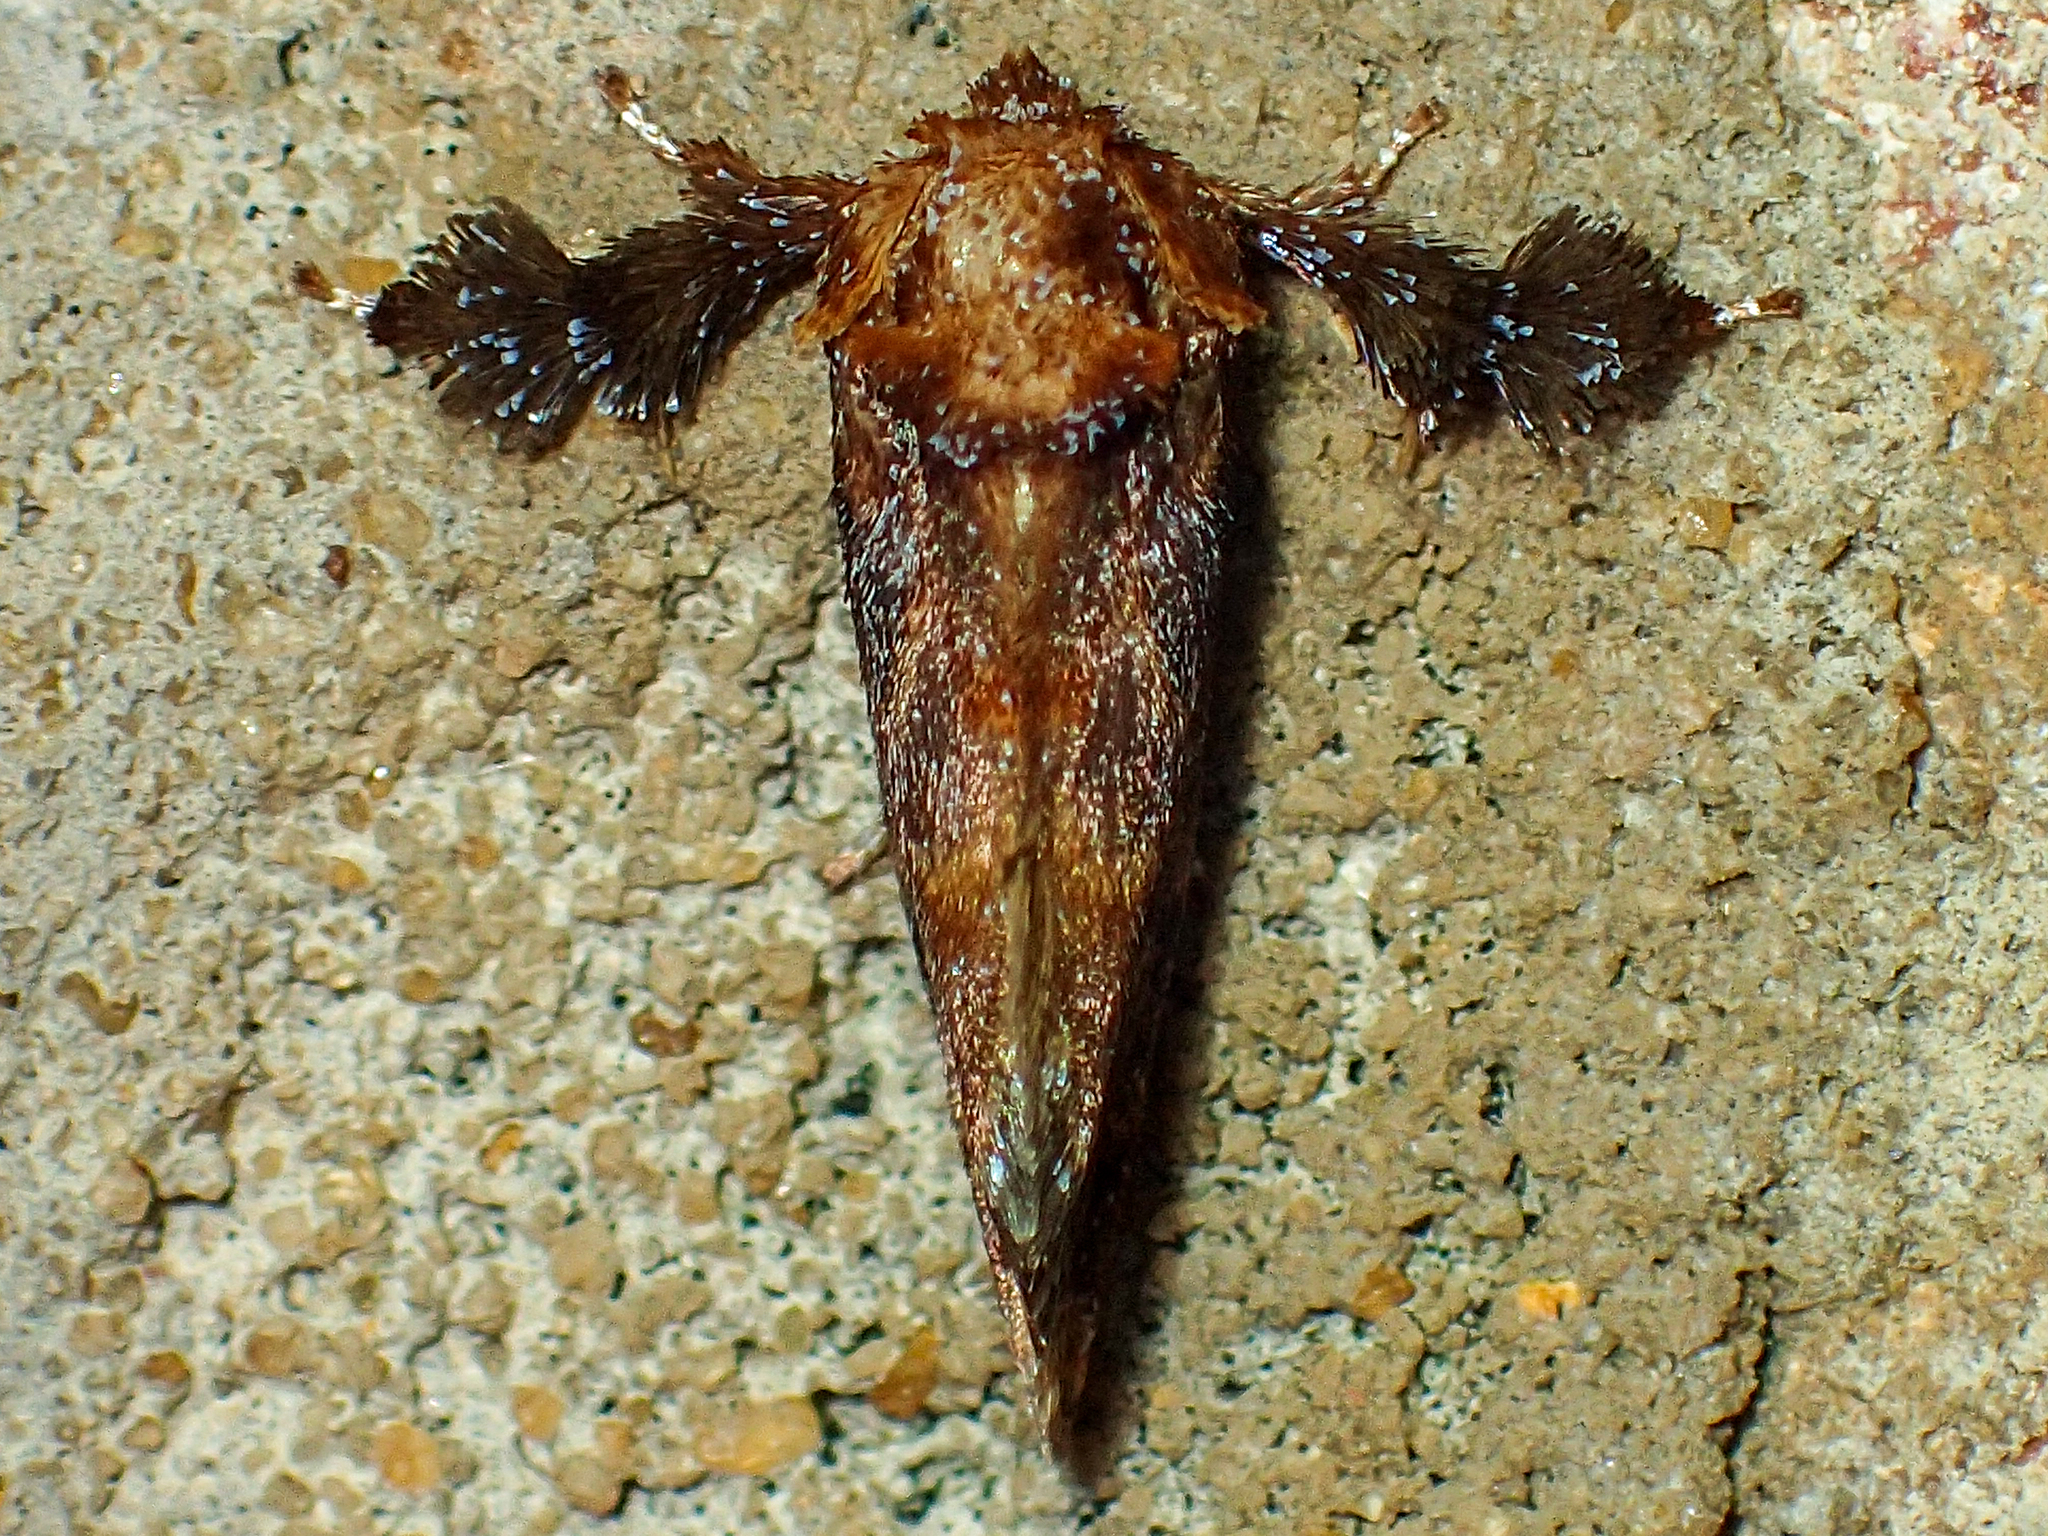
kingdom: Animalia
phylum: Arthropoda
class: Insecta
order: Lepidoptera
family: Limacodidae
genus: Isochaetes
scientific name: Isochaetes beutenmuelleri
